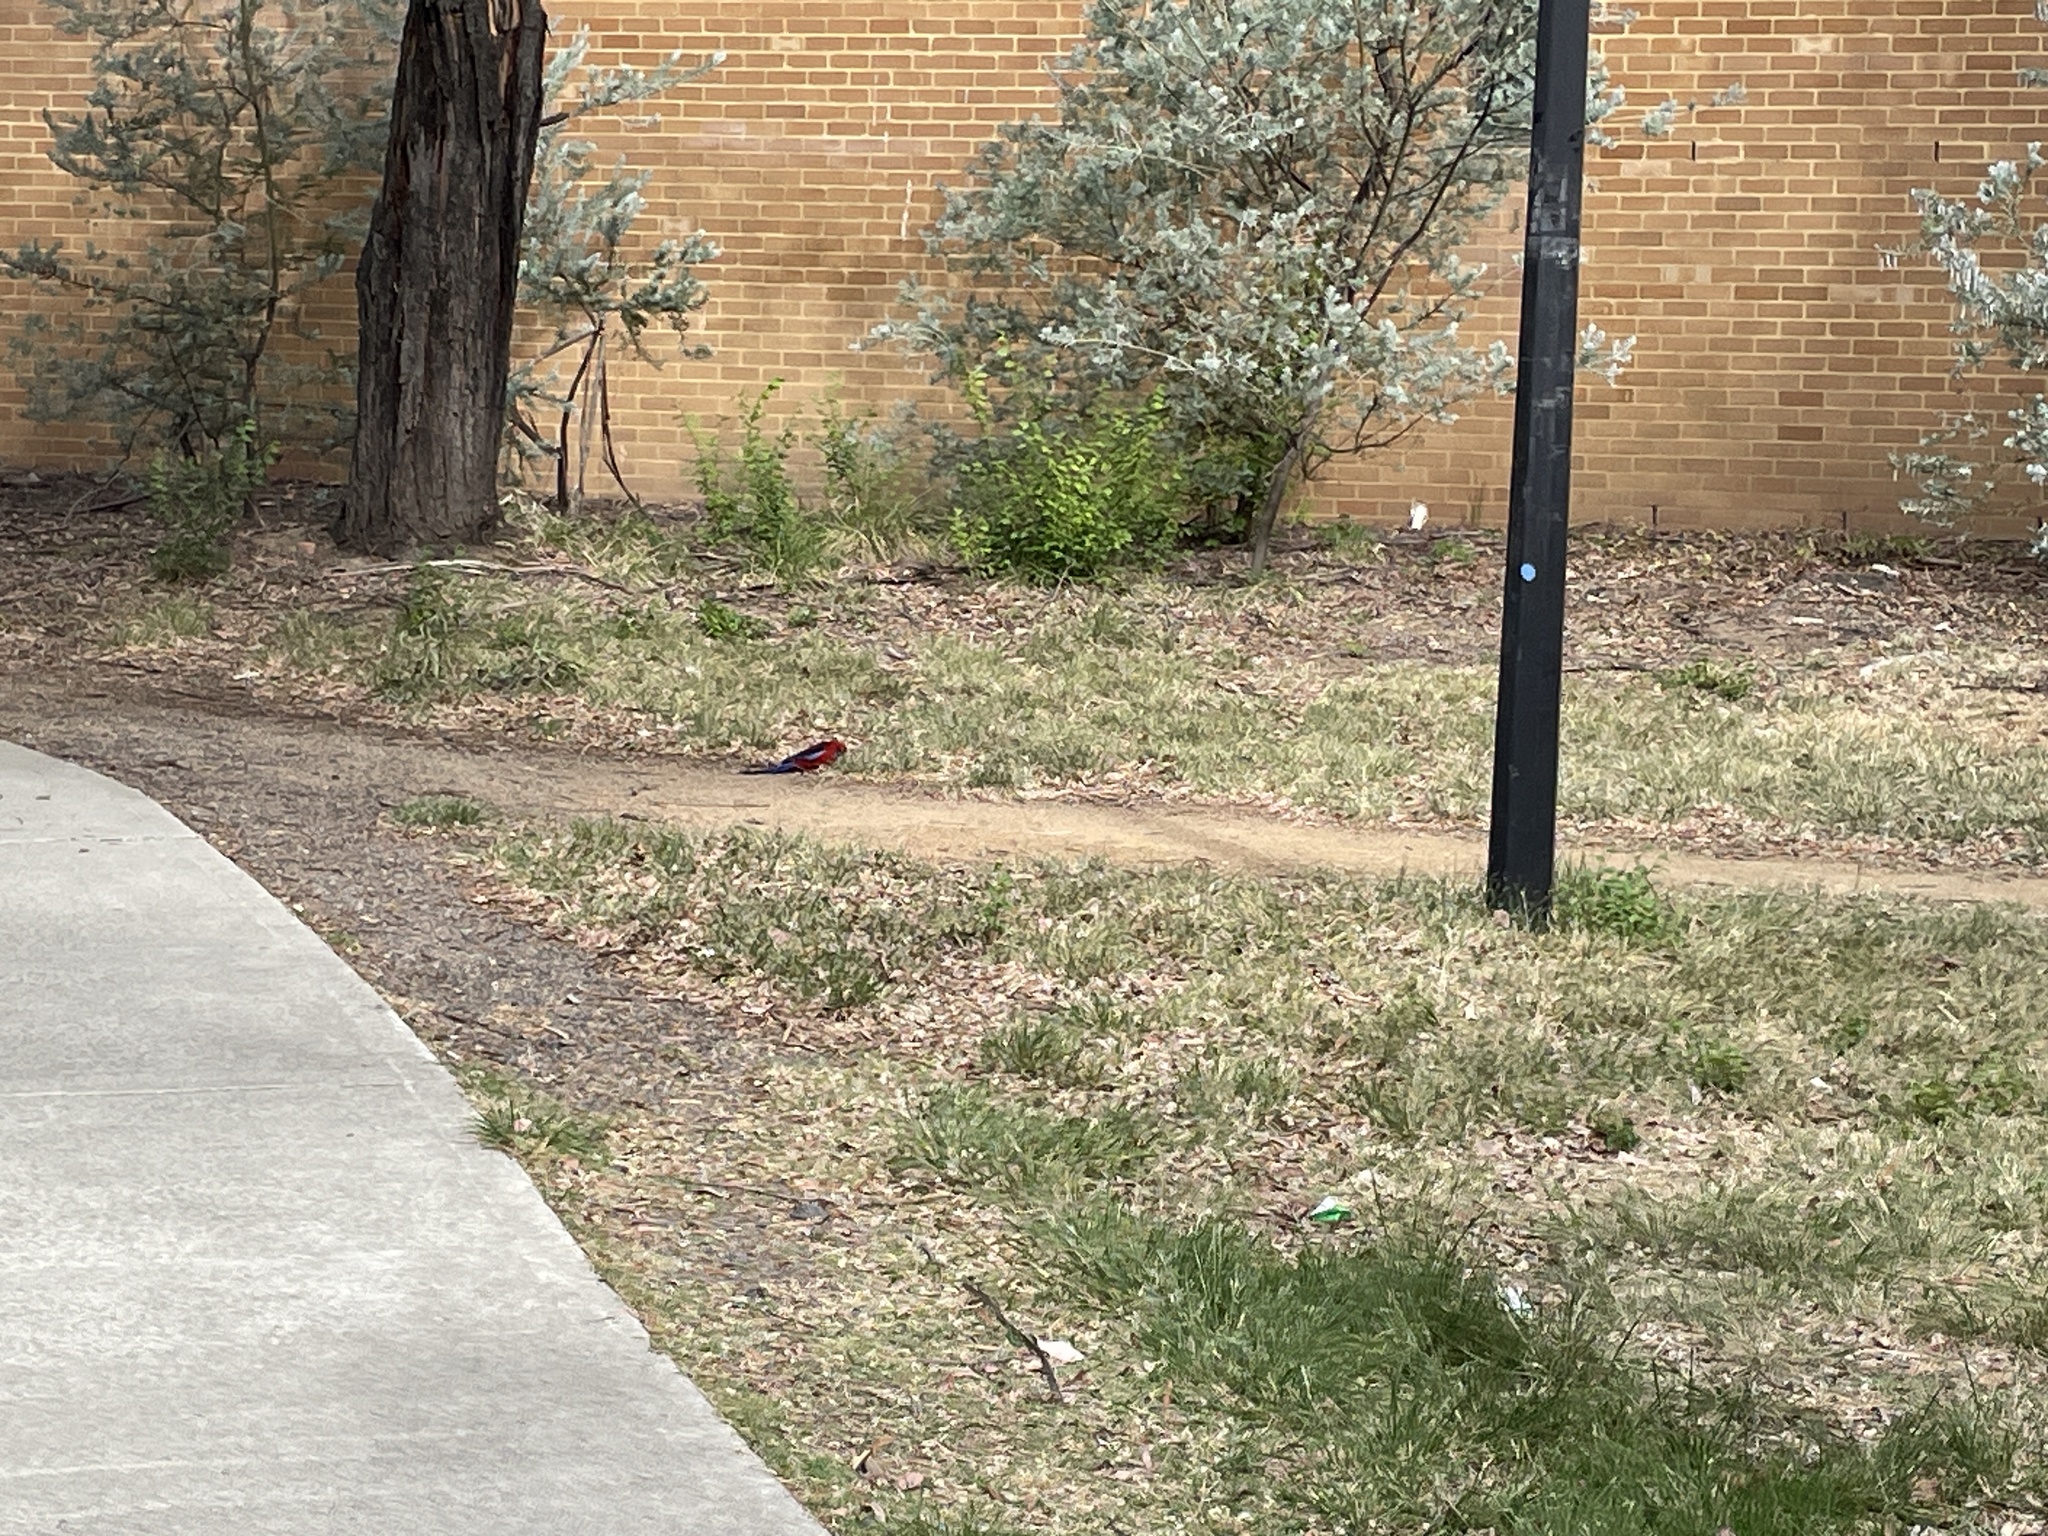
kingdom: Animalia
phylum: Chordata
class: Aves
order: Psittaciformes
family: Psittacidae
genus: Platycercus
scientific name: Platycercus elegans
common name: Crimson rosella
